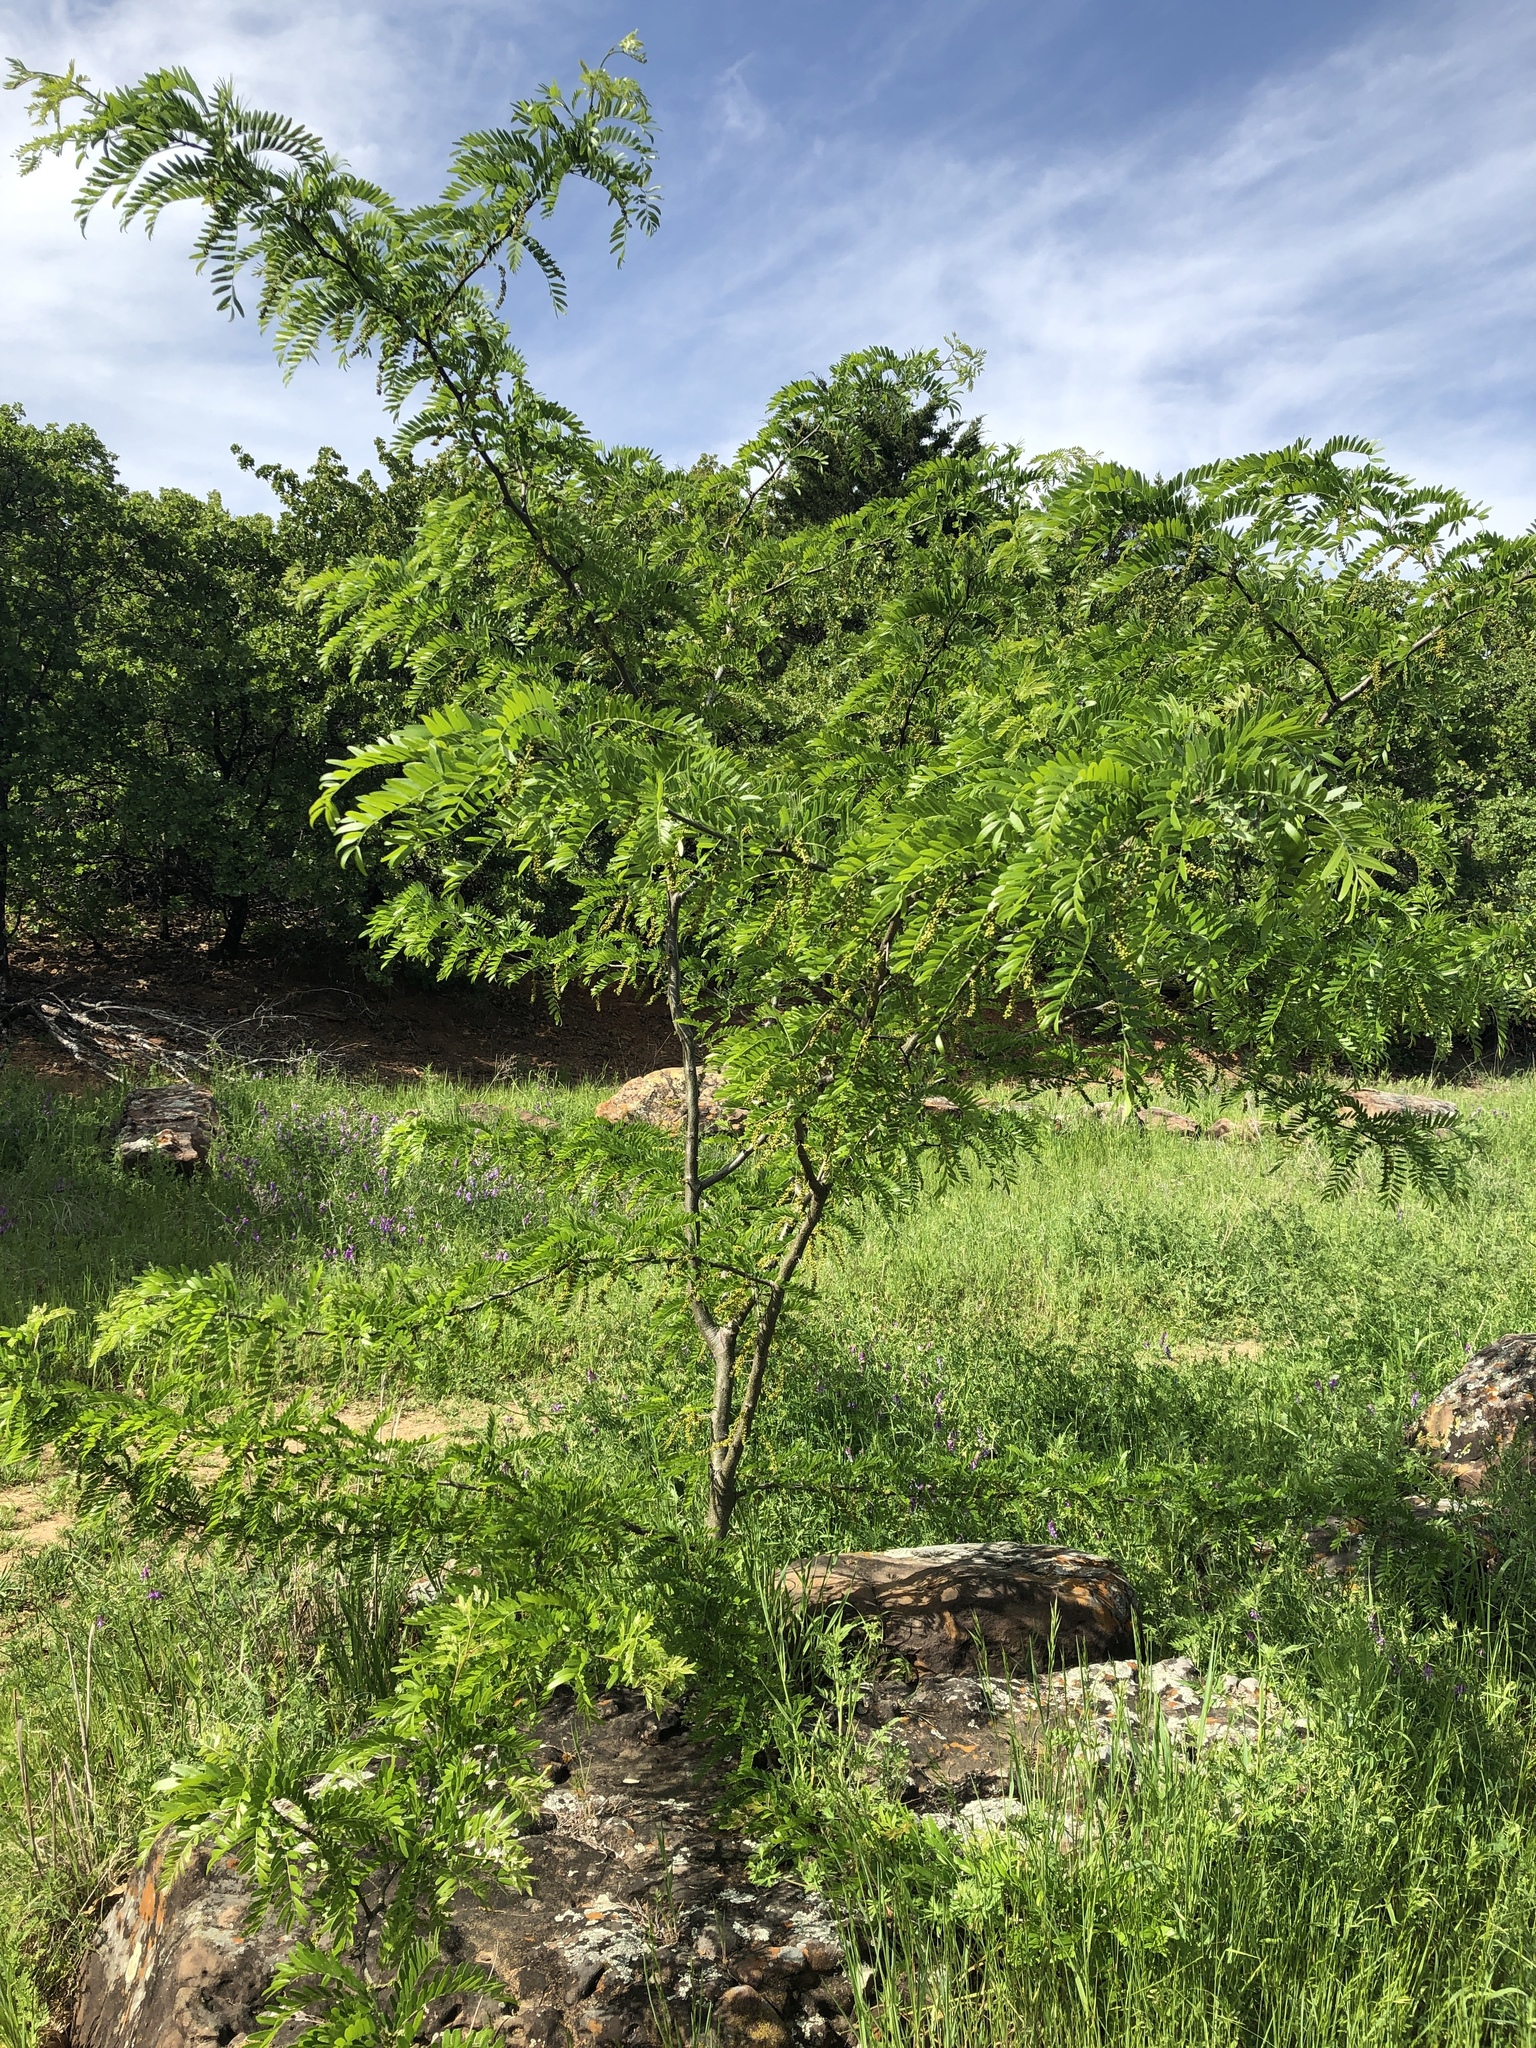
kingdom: Plantae
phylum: Tracheophyta
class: Magnoliopsida
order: Fabales
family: Fabaceae
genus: Gleditsia
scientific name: Gleditsia triacanthos
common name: Common honeylocust
